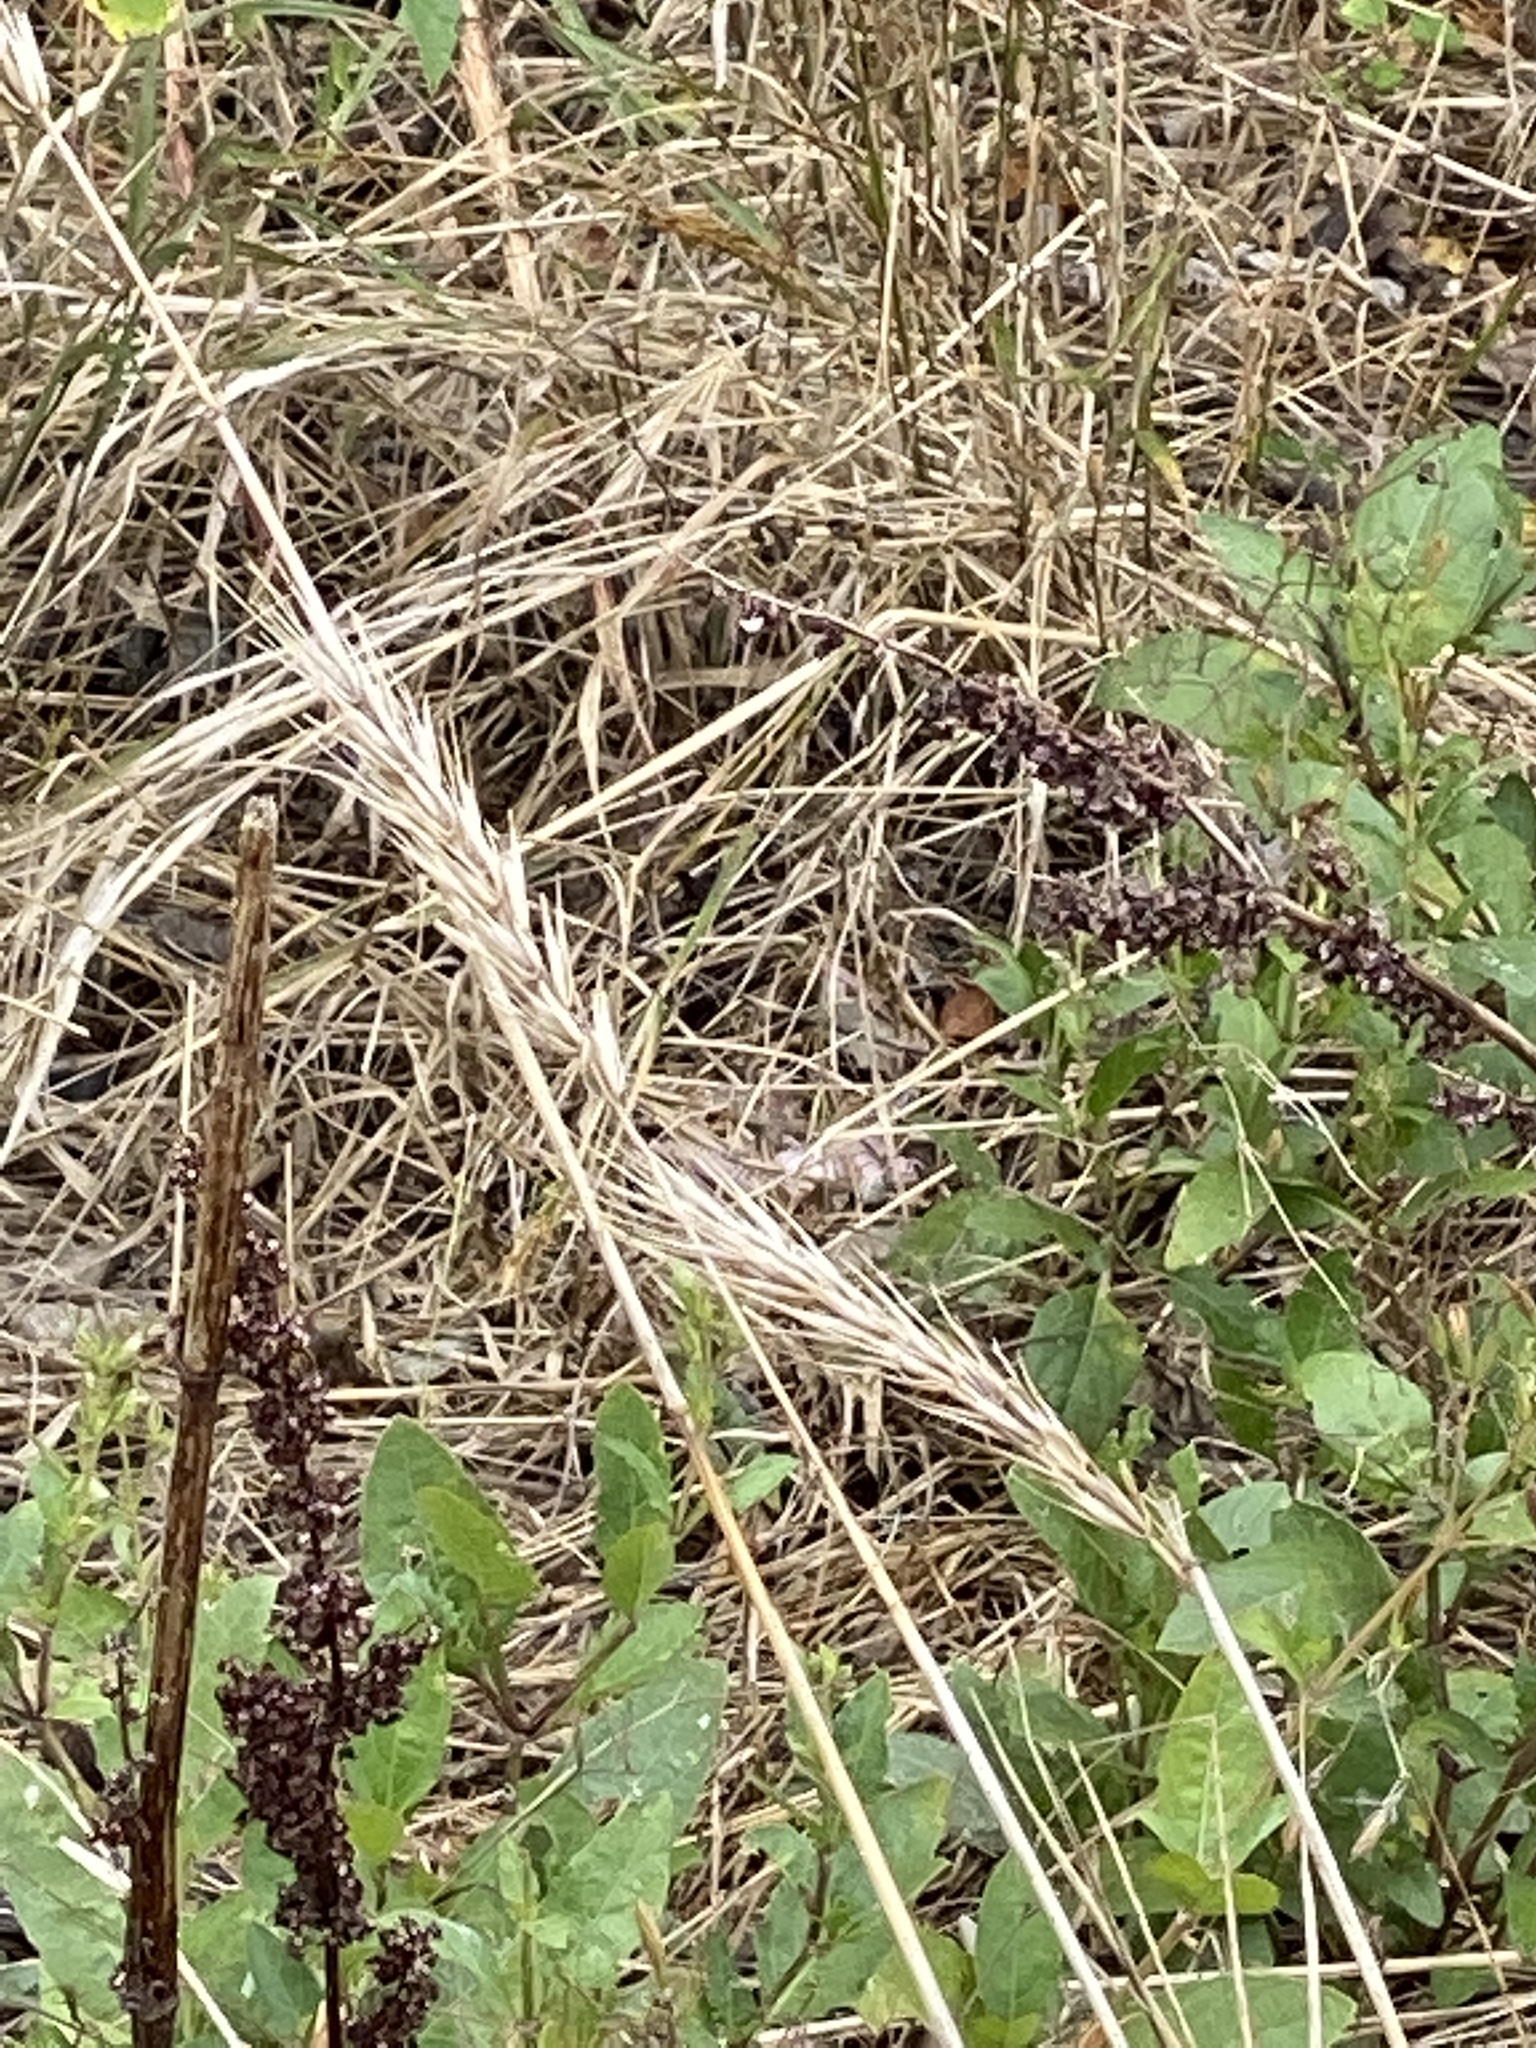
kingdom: Plantae
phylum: Tracheophyta
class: Liliopsida
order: Poales
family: Poaceae
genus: Elymus
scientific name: Elymus virginicus
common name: Common eastern wildrye
